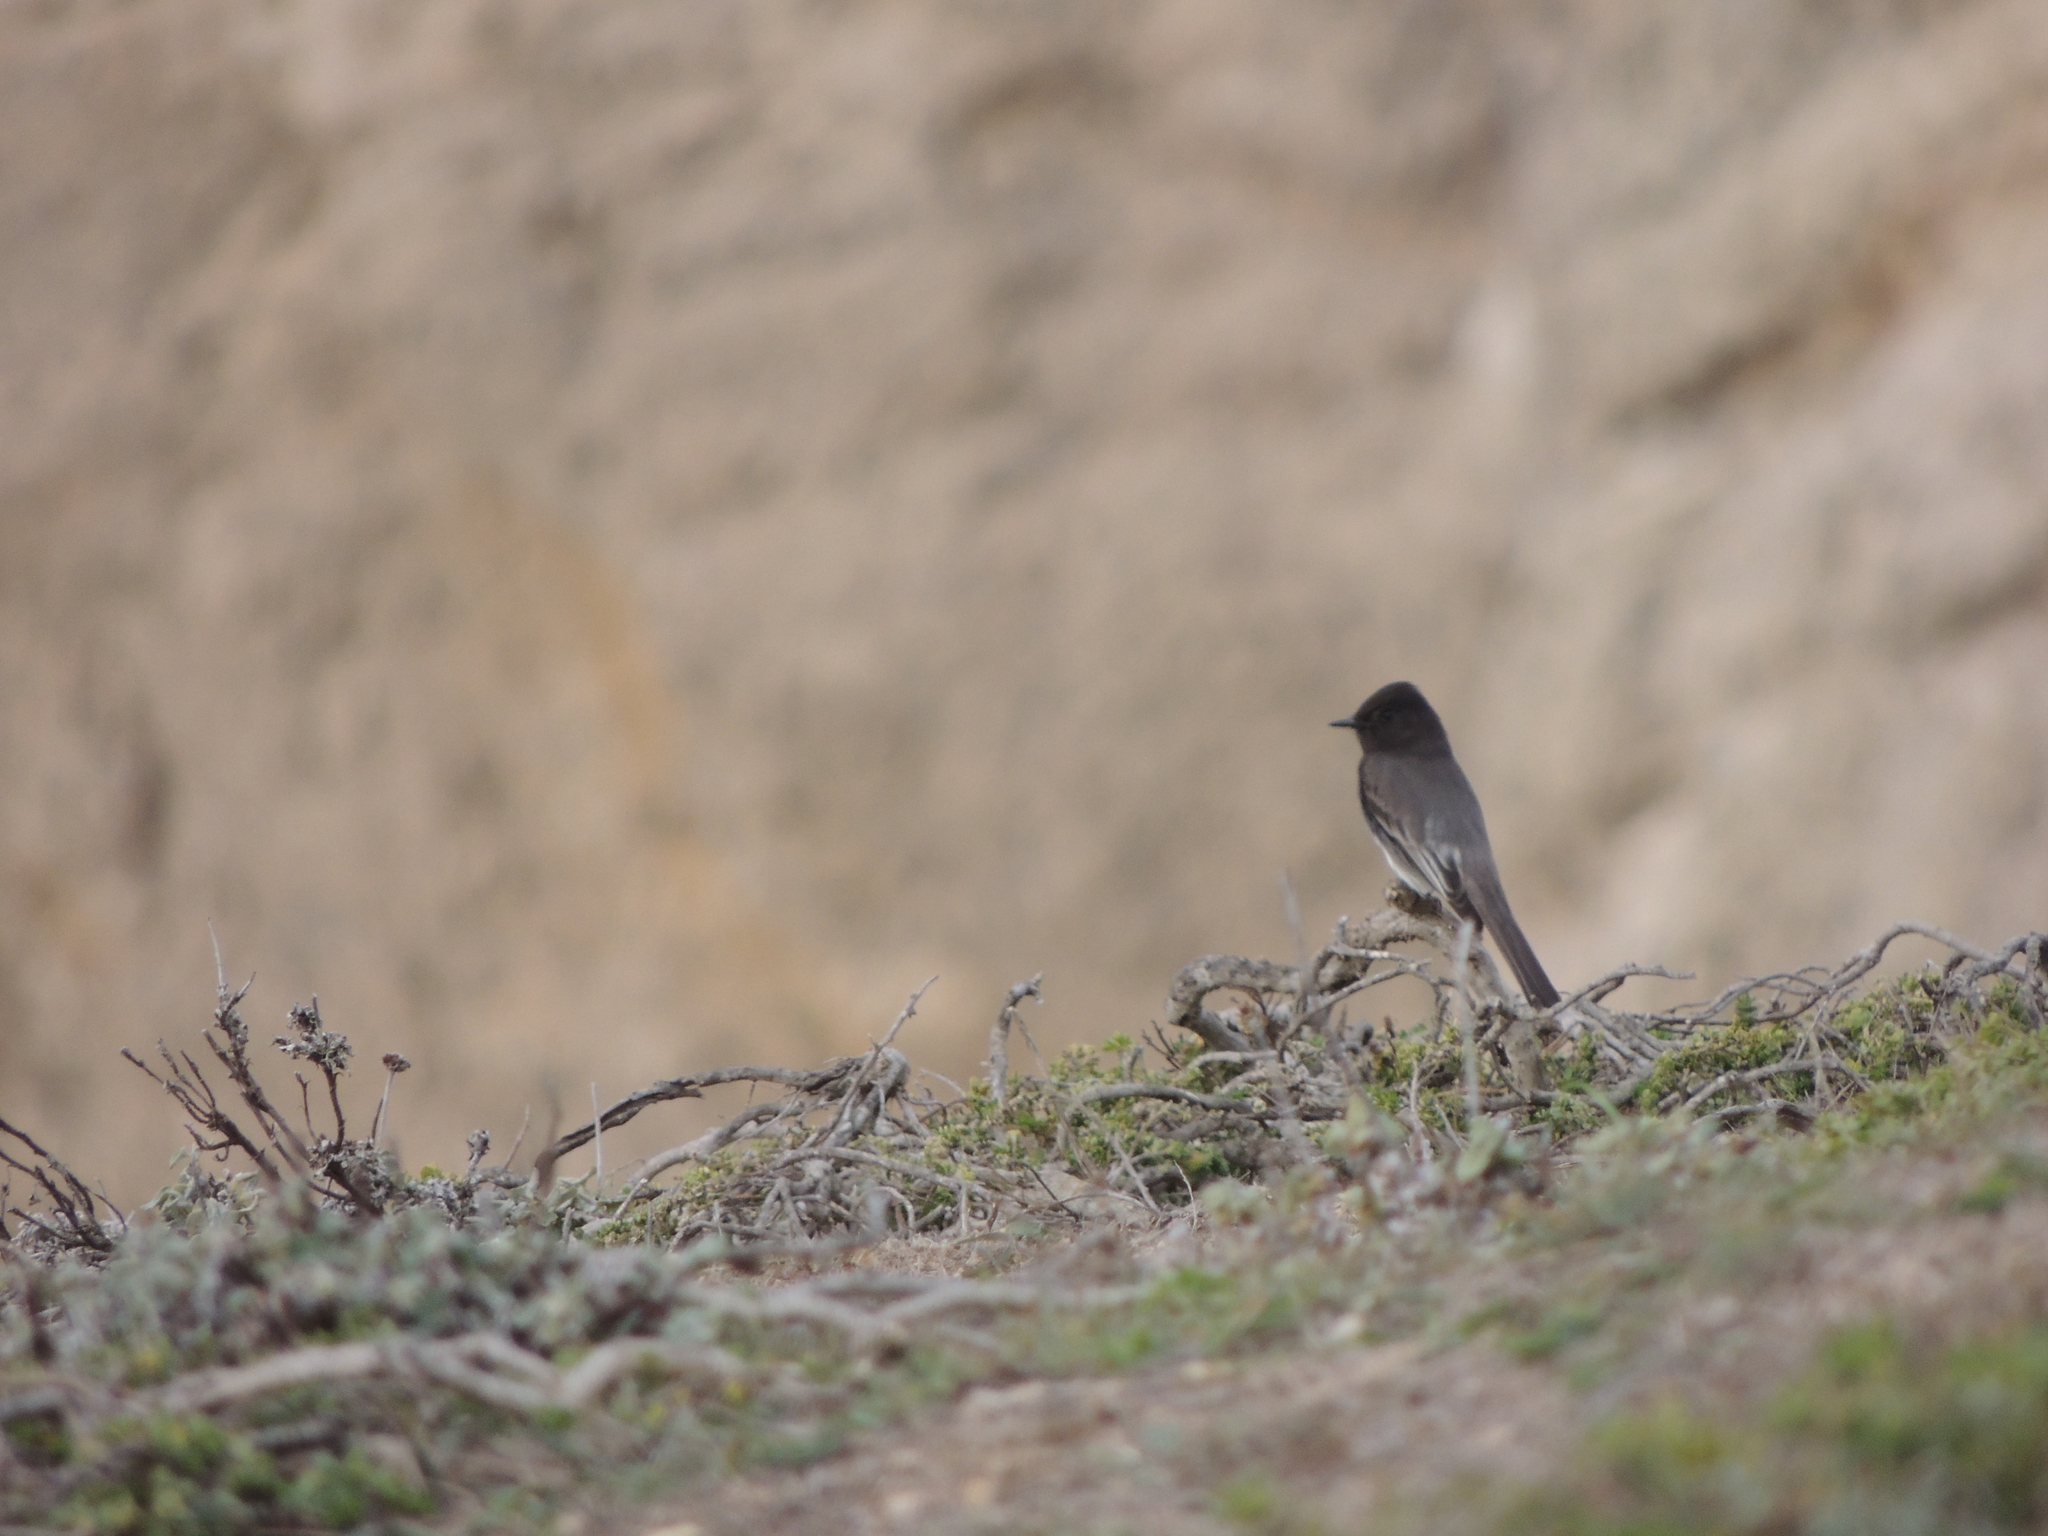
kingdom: Animalia
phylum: Chordata
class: Aves
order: Passeriformes
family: Tyrannidae
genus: Sayornis
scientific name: Sayornis nigricans
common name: Black phoebe
